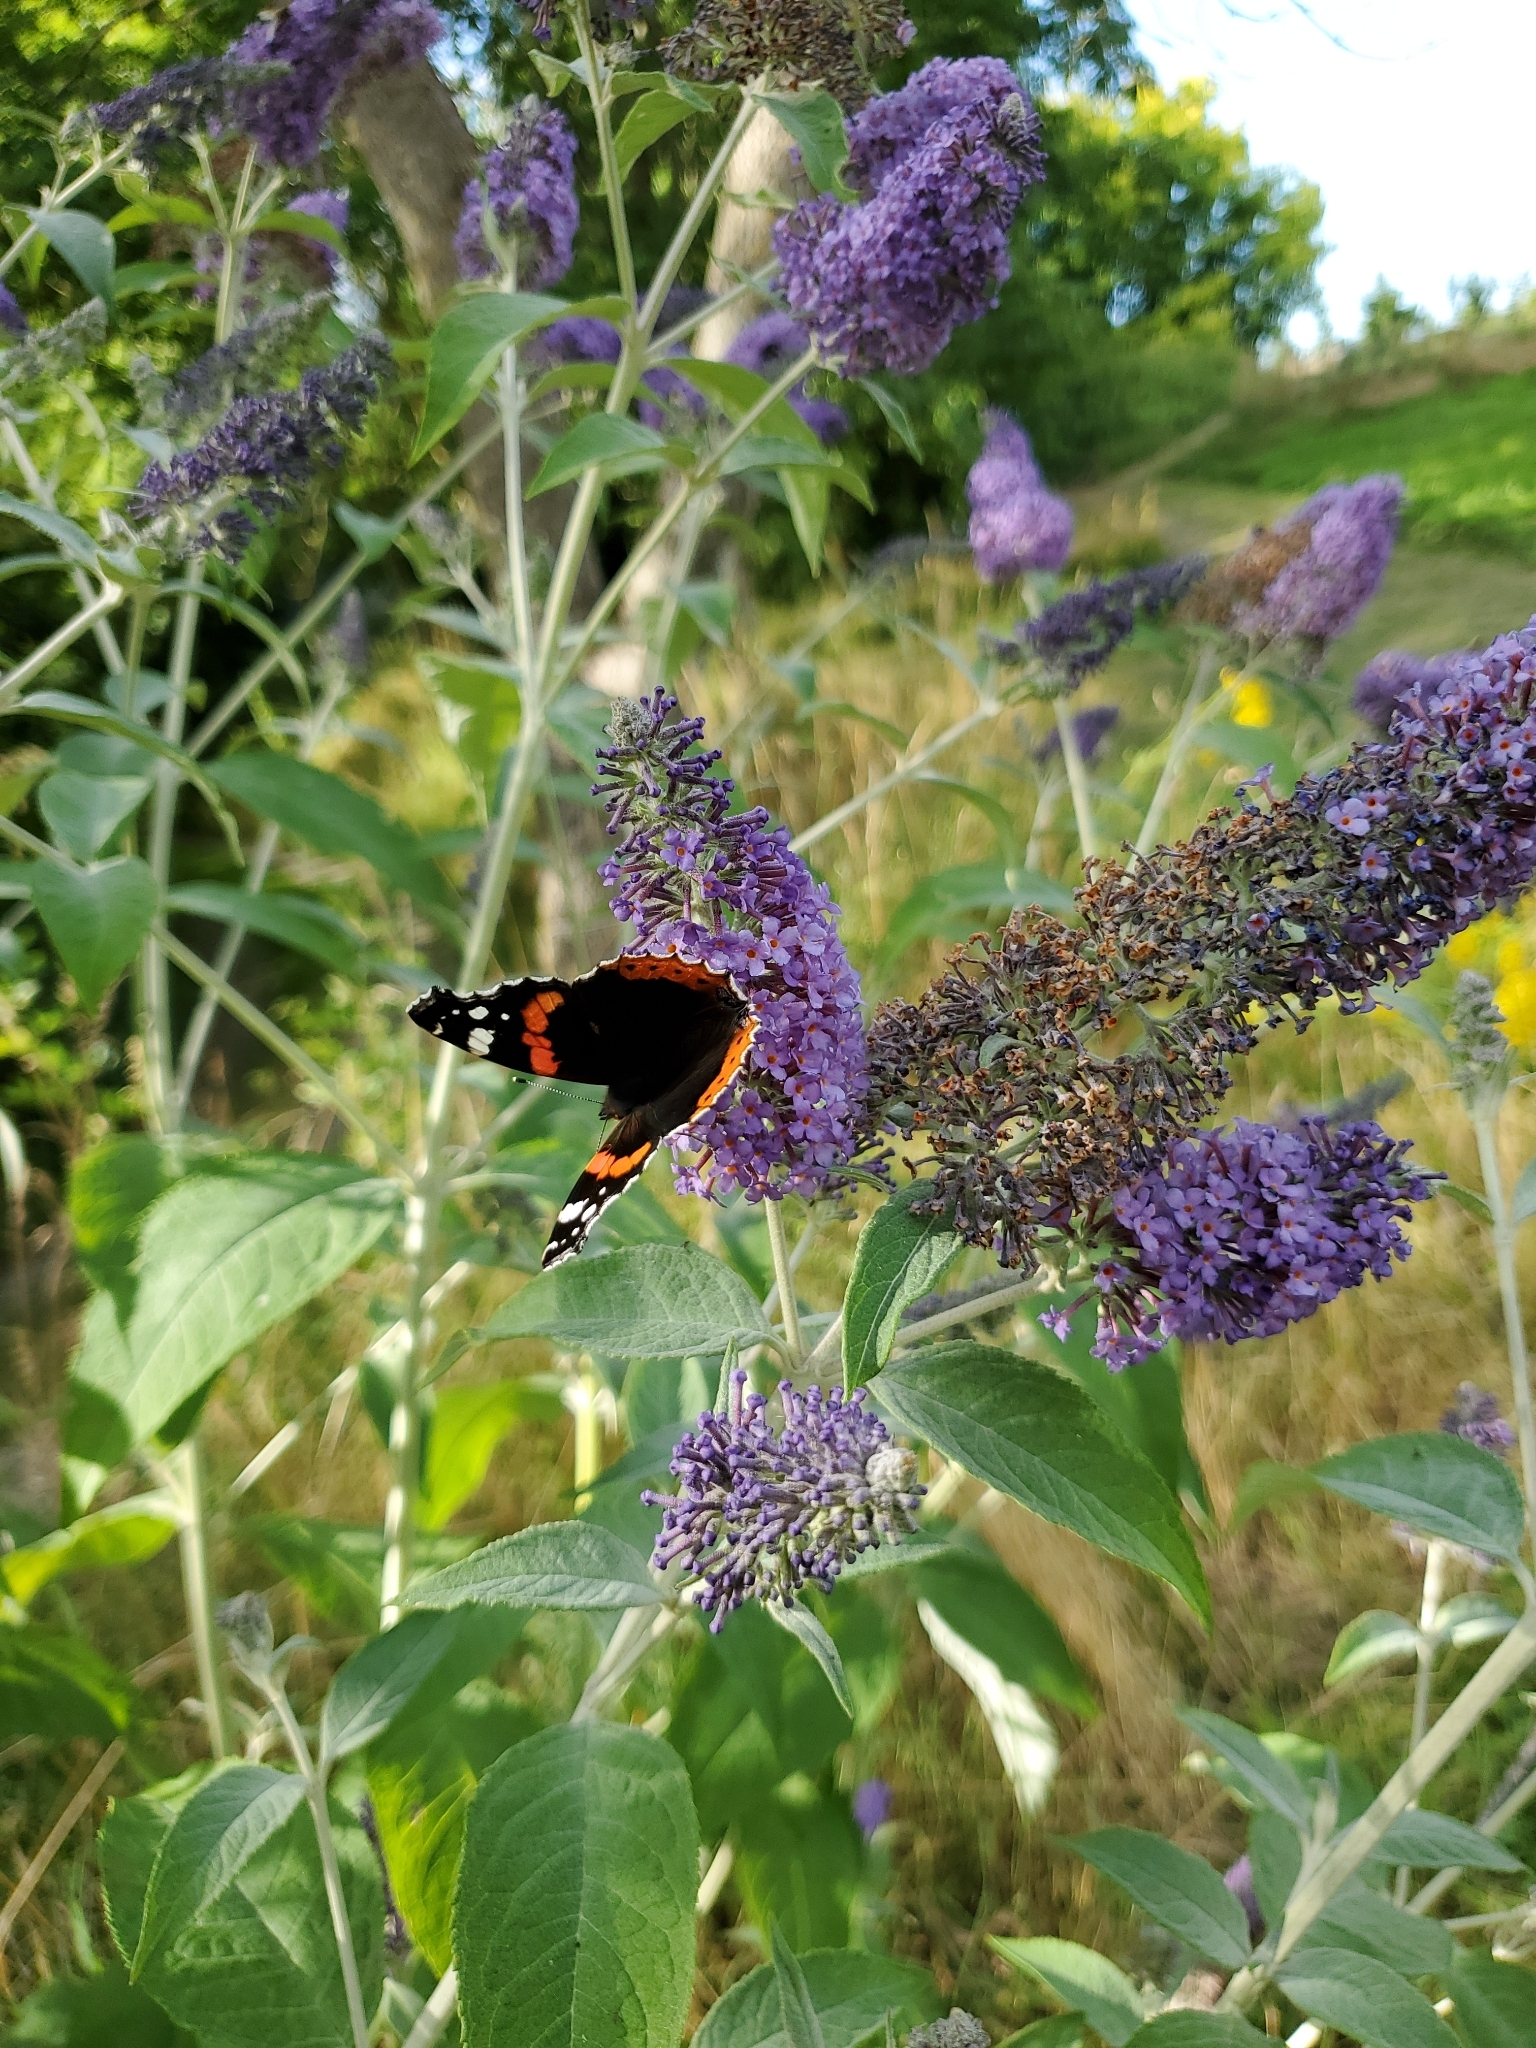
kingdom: Animalia
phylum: Arthropoda
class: Insecta
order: Lepidoptera
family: Nymphalidae
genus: Vanessa
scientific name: Vanessa atalanta
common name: Red admiral
